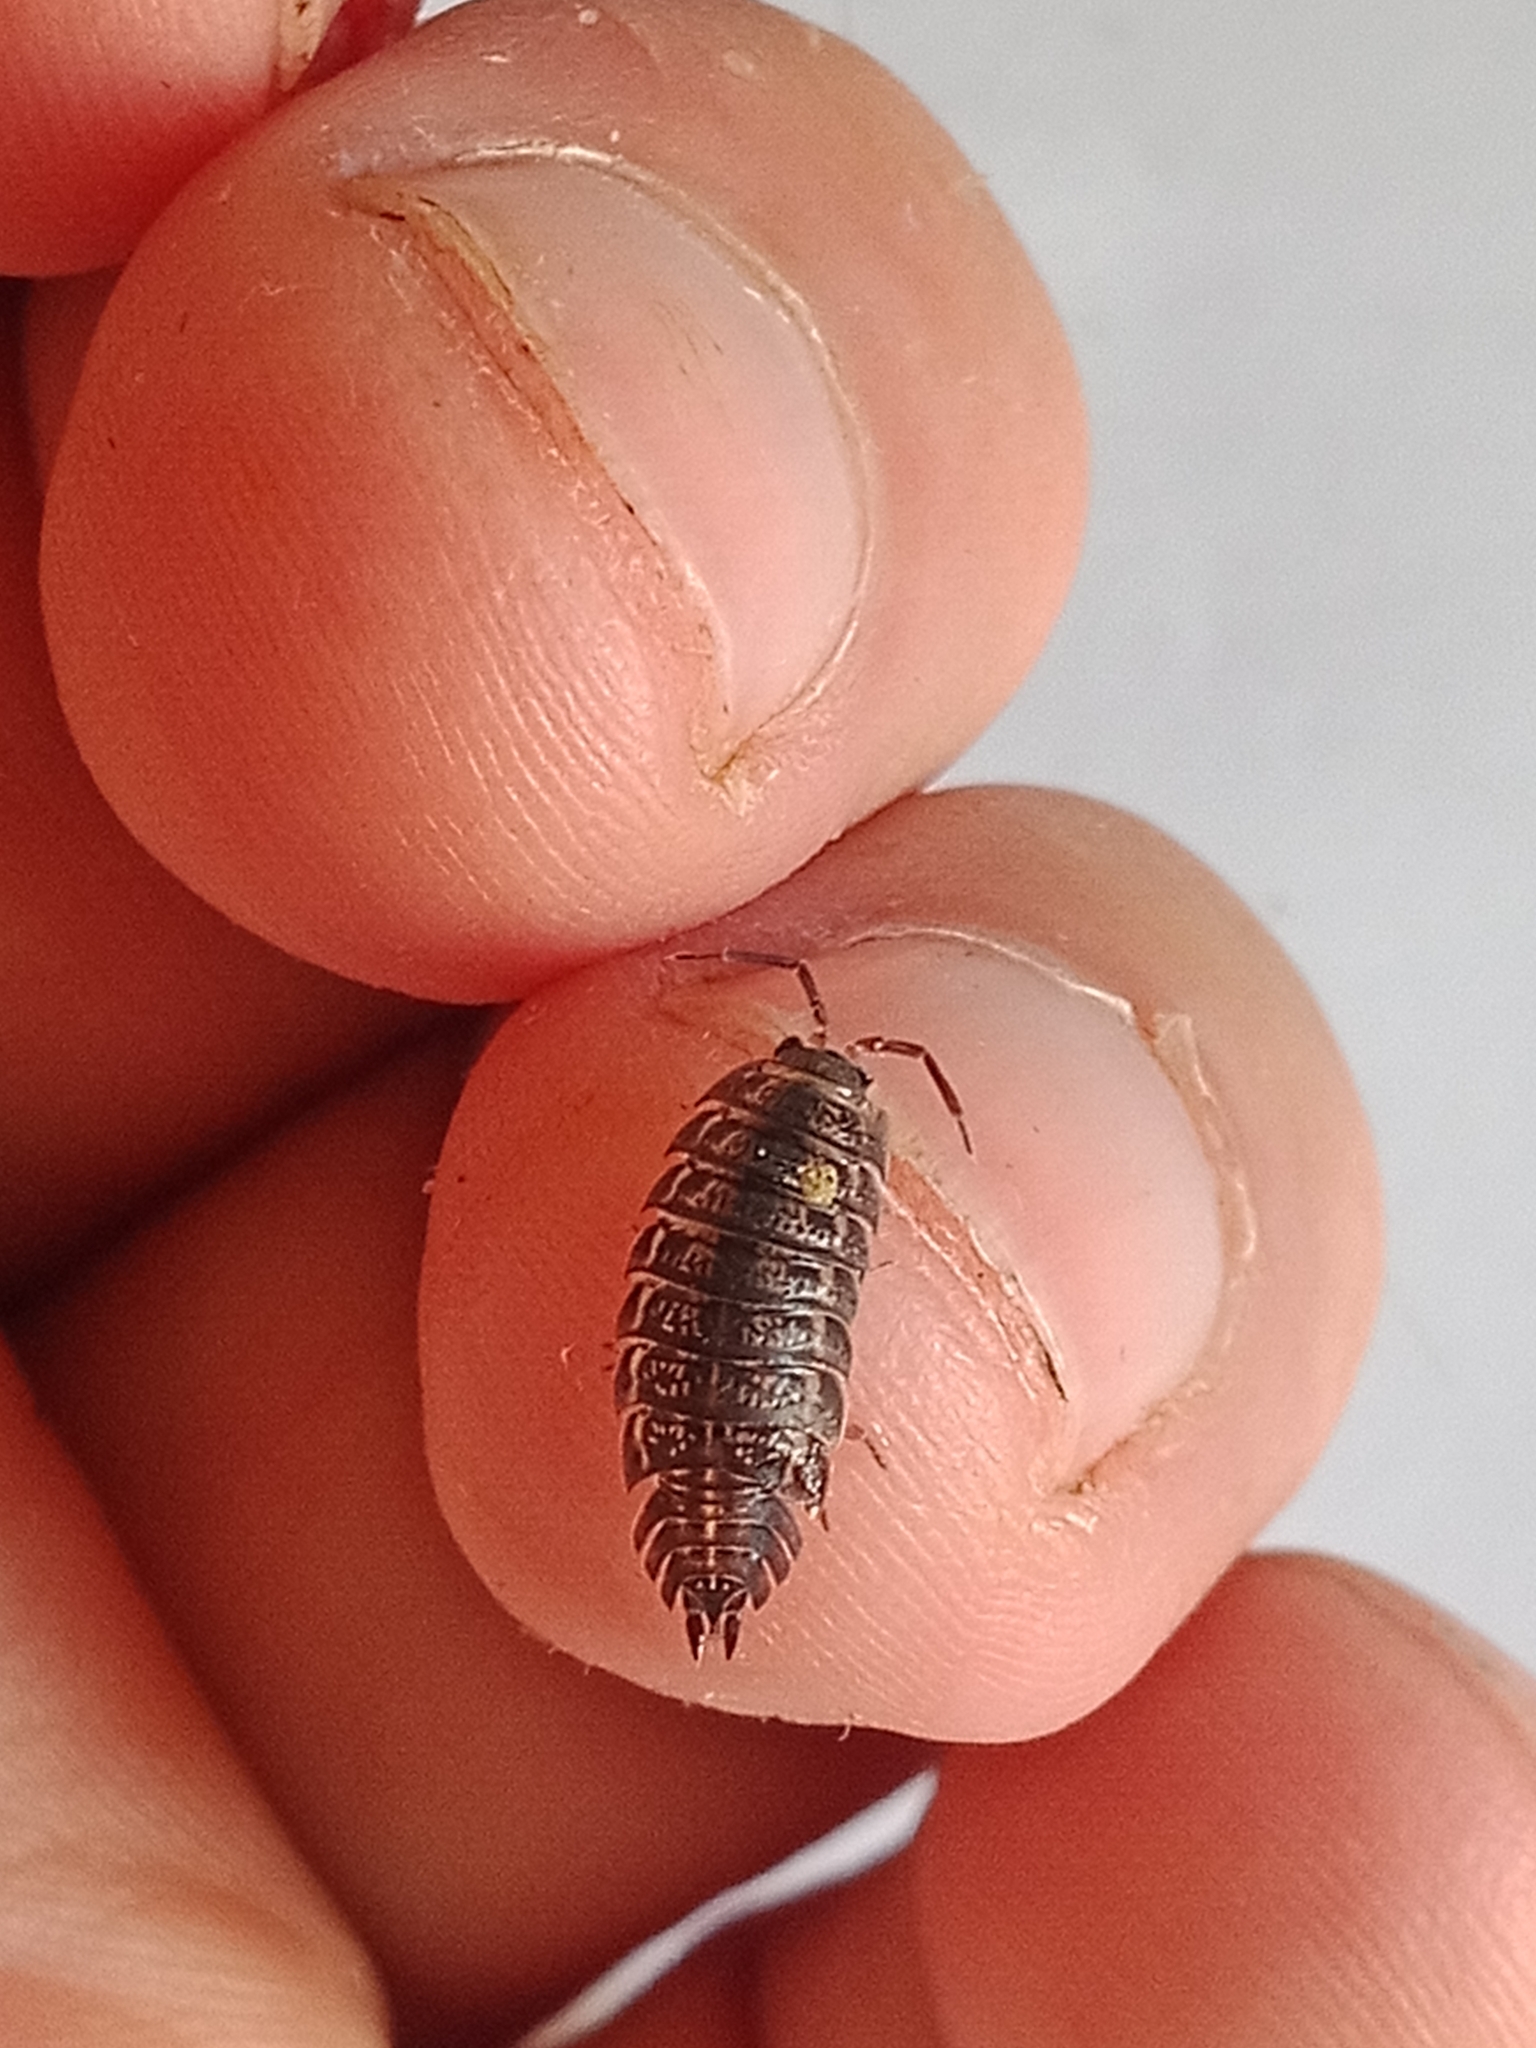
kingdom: Animalia
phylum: Arthropoda
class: Malacostraca
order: Isopoda
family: Trachelipodidae
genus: Trachelipus
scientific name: Trachelipus rathkii
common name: Isopod
